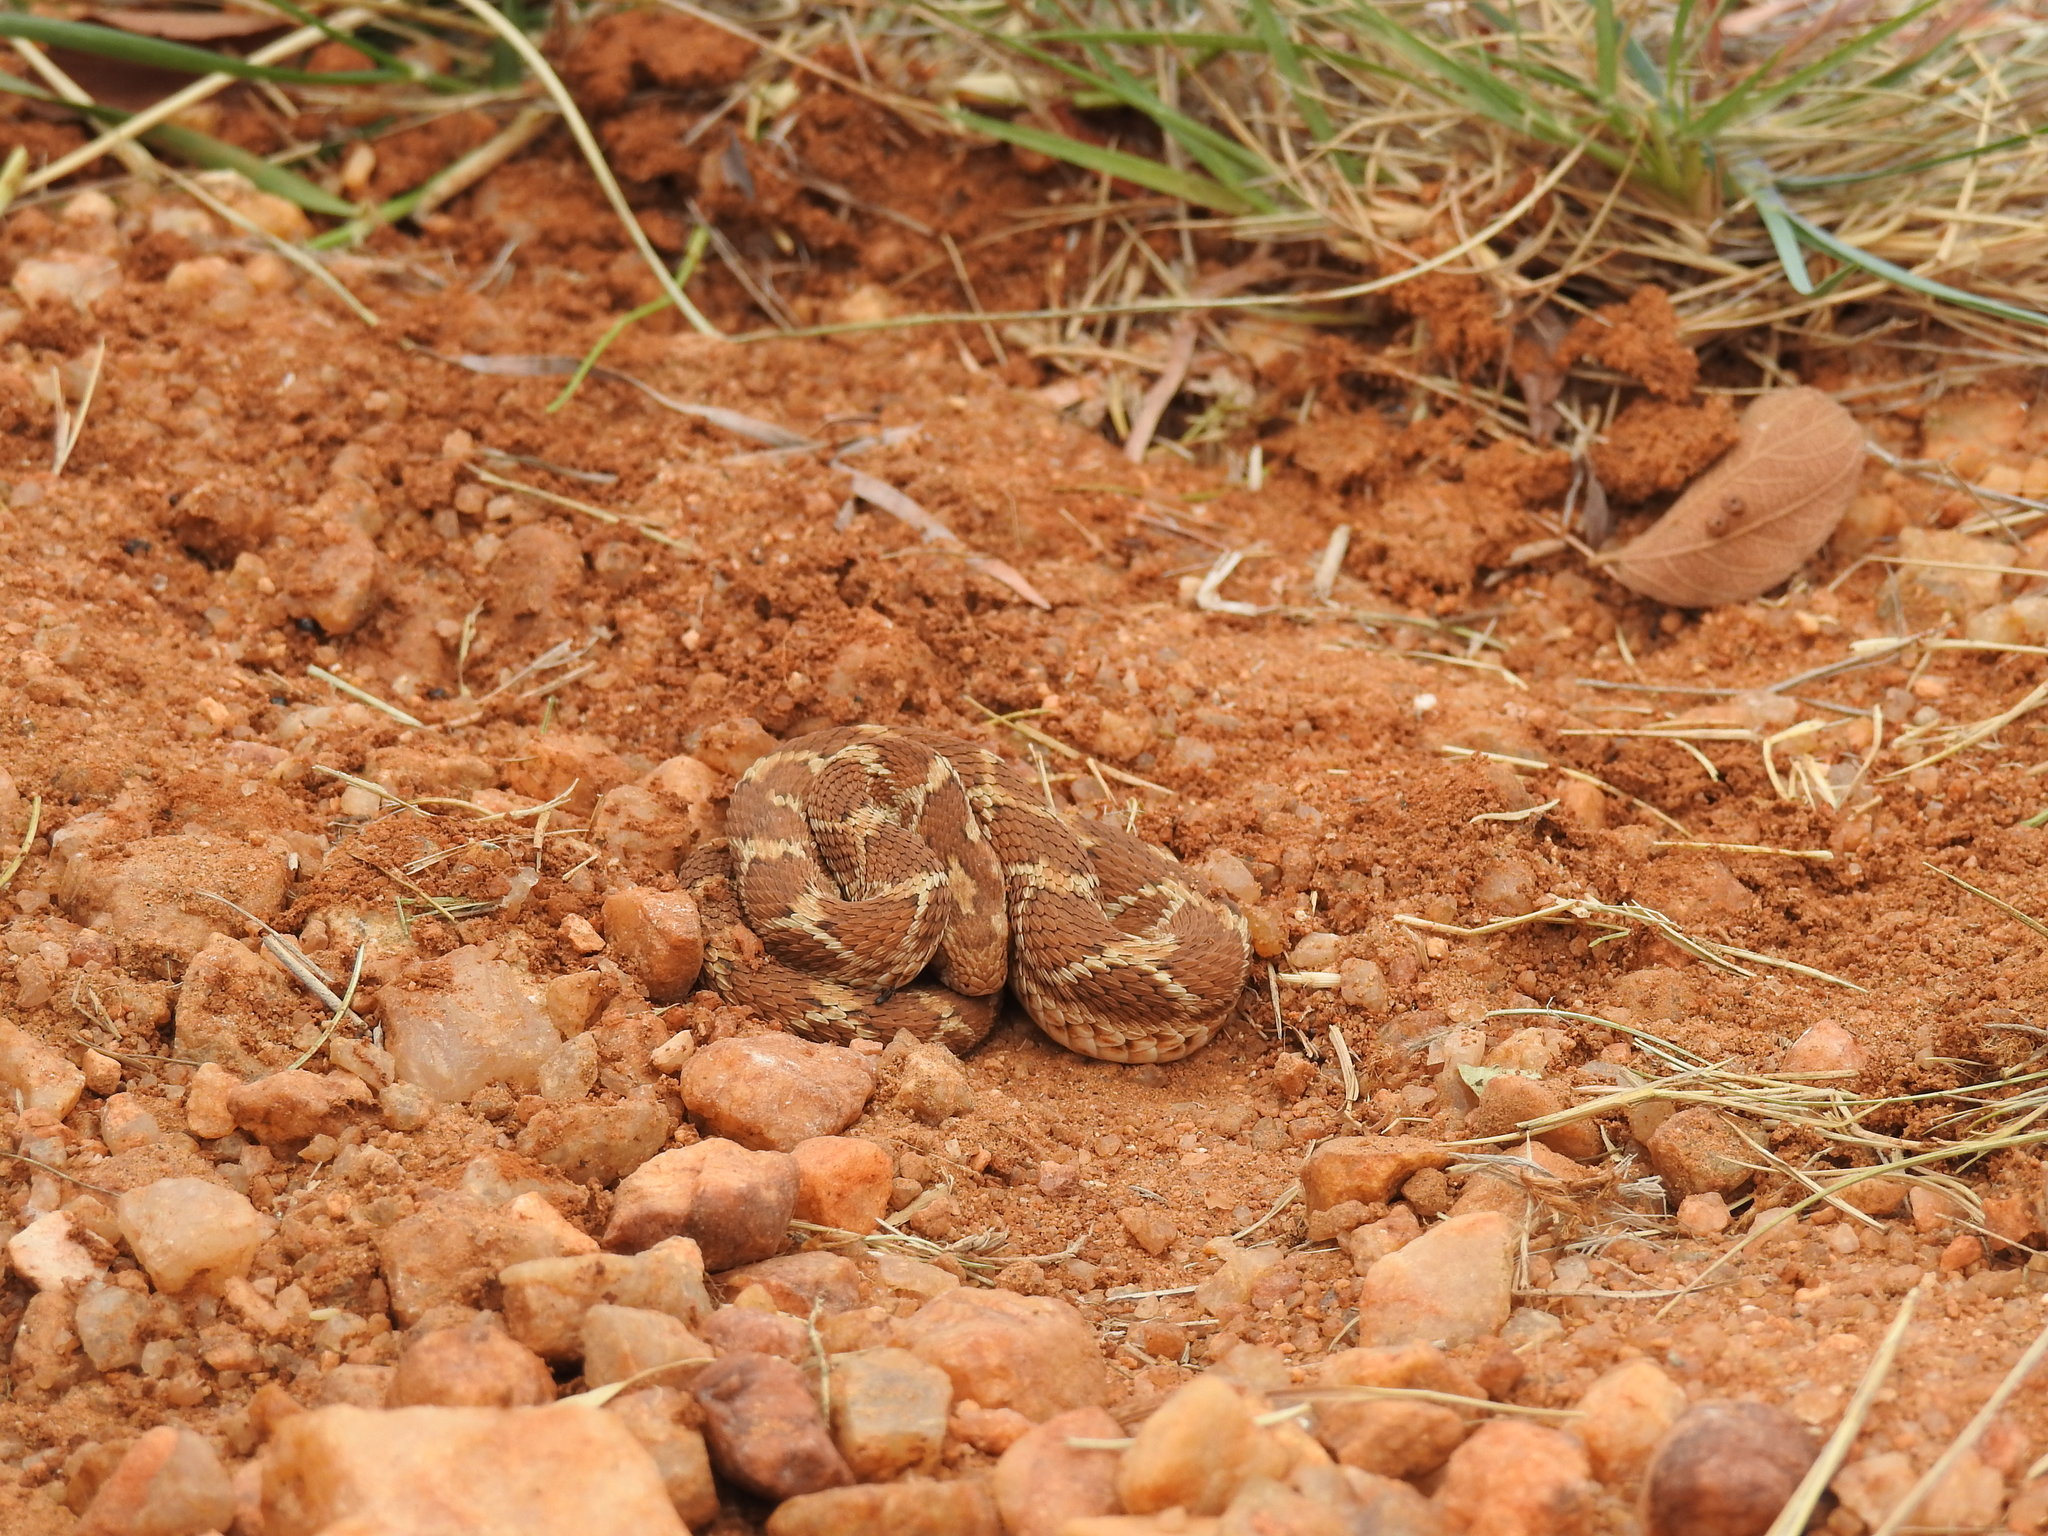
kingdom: Animalia
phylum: Chordata
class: Squamata
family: Viperidae
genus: Echis
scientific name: Echis carinatus
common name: Saw-scaled viper
